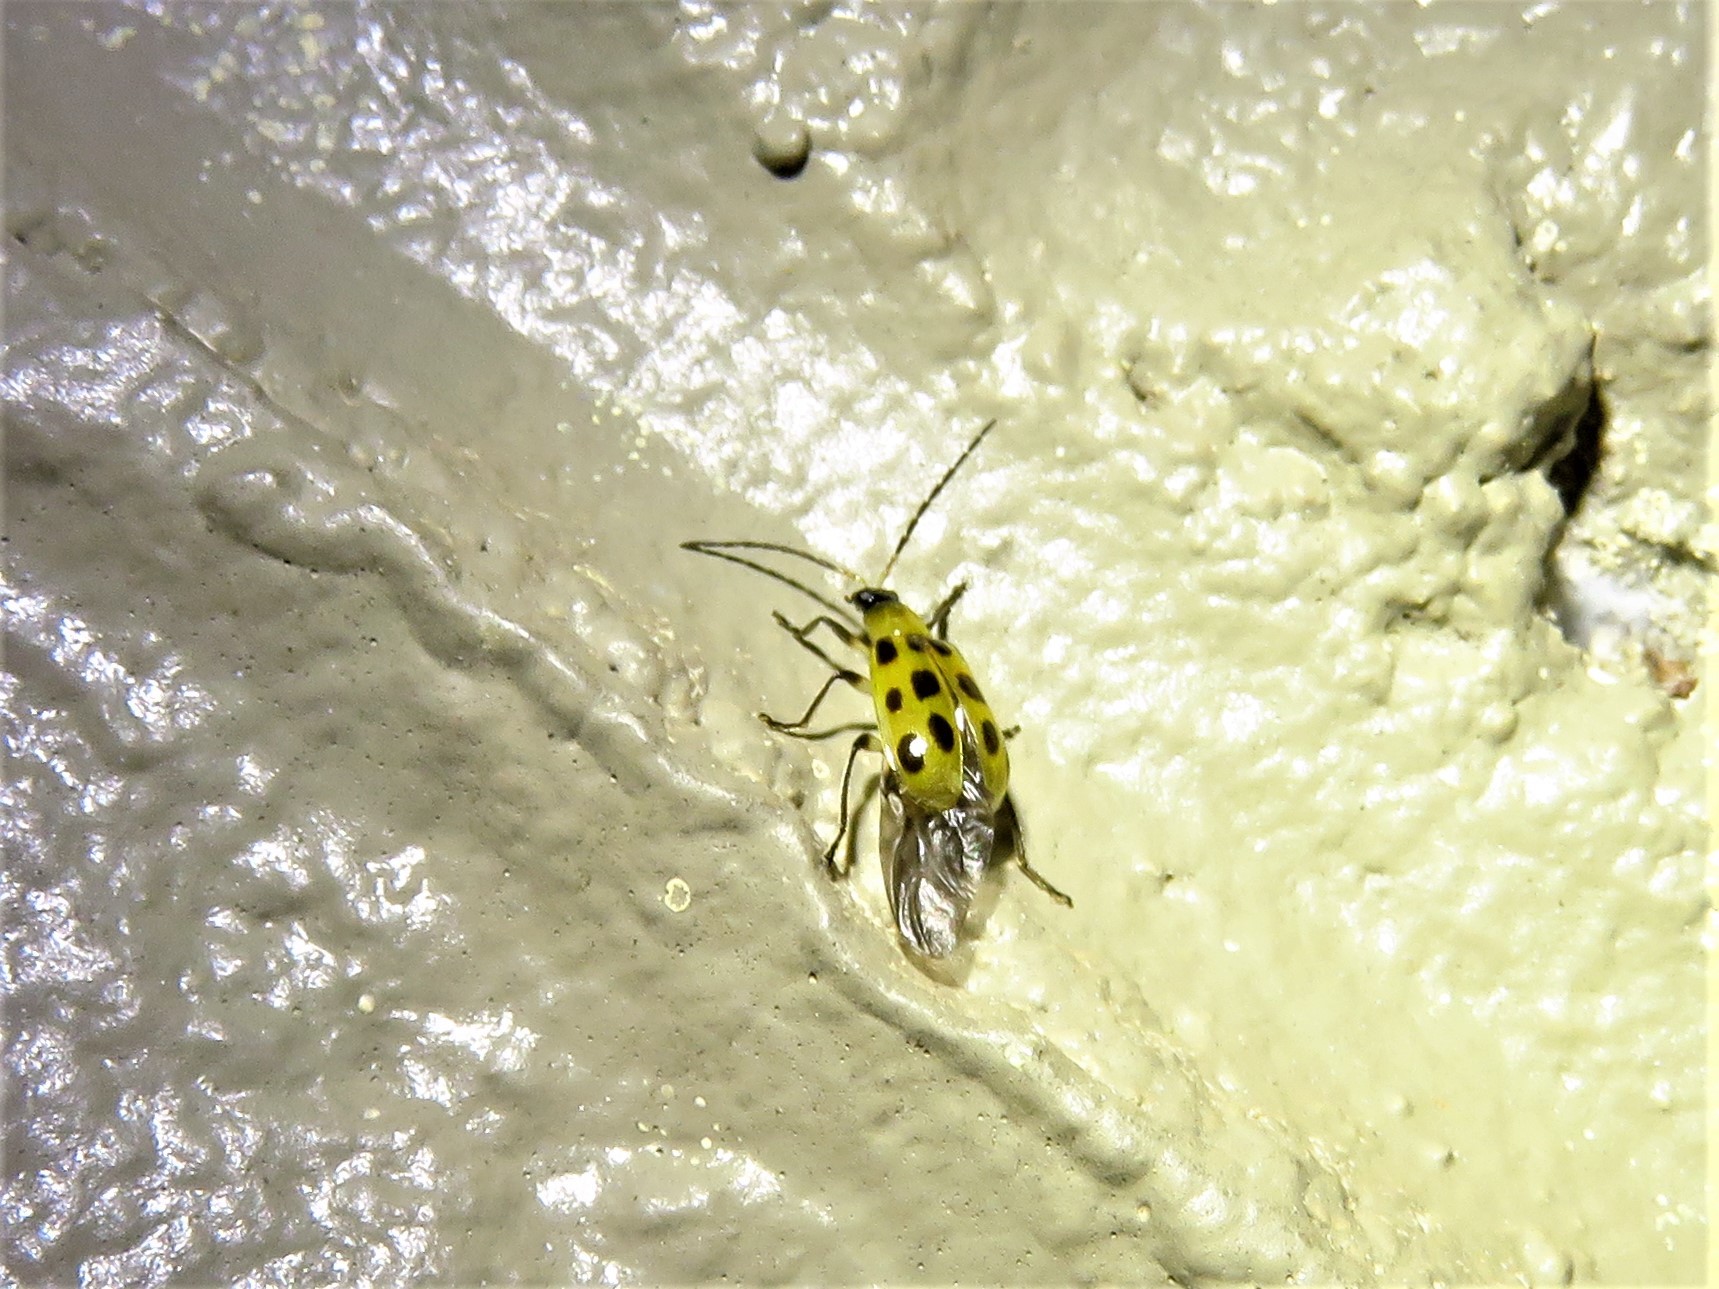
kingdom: Animalia
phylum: Arthropoda
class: Insecta
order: Coleoptera
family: Chrysomelidae
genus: Diabrotica
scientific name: Diabrotica undecimpunctata
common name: Spotted cucumber beetle
